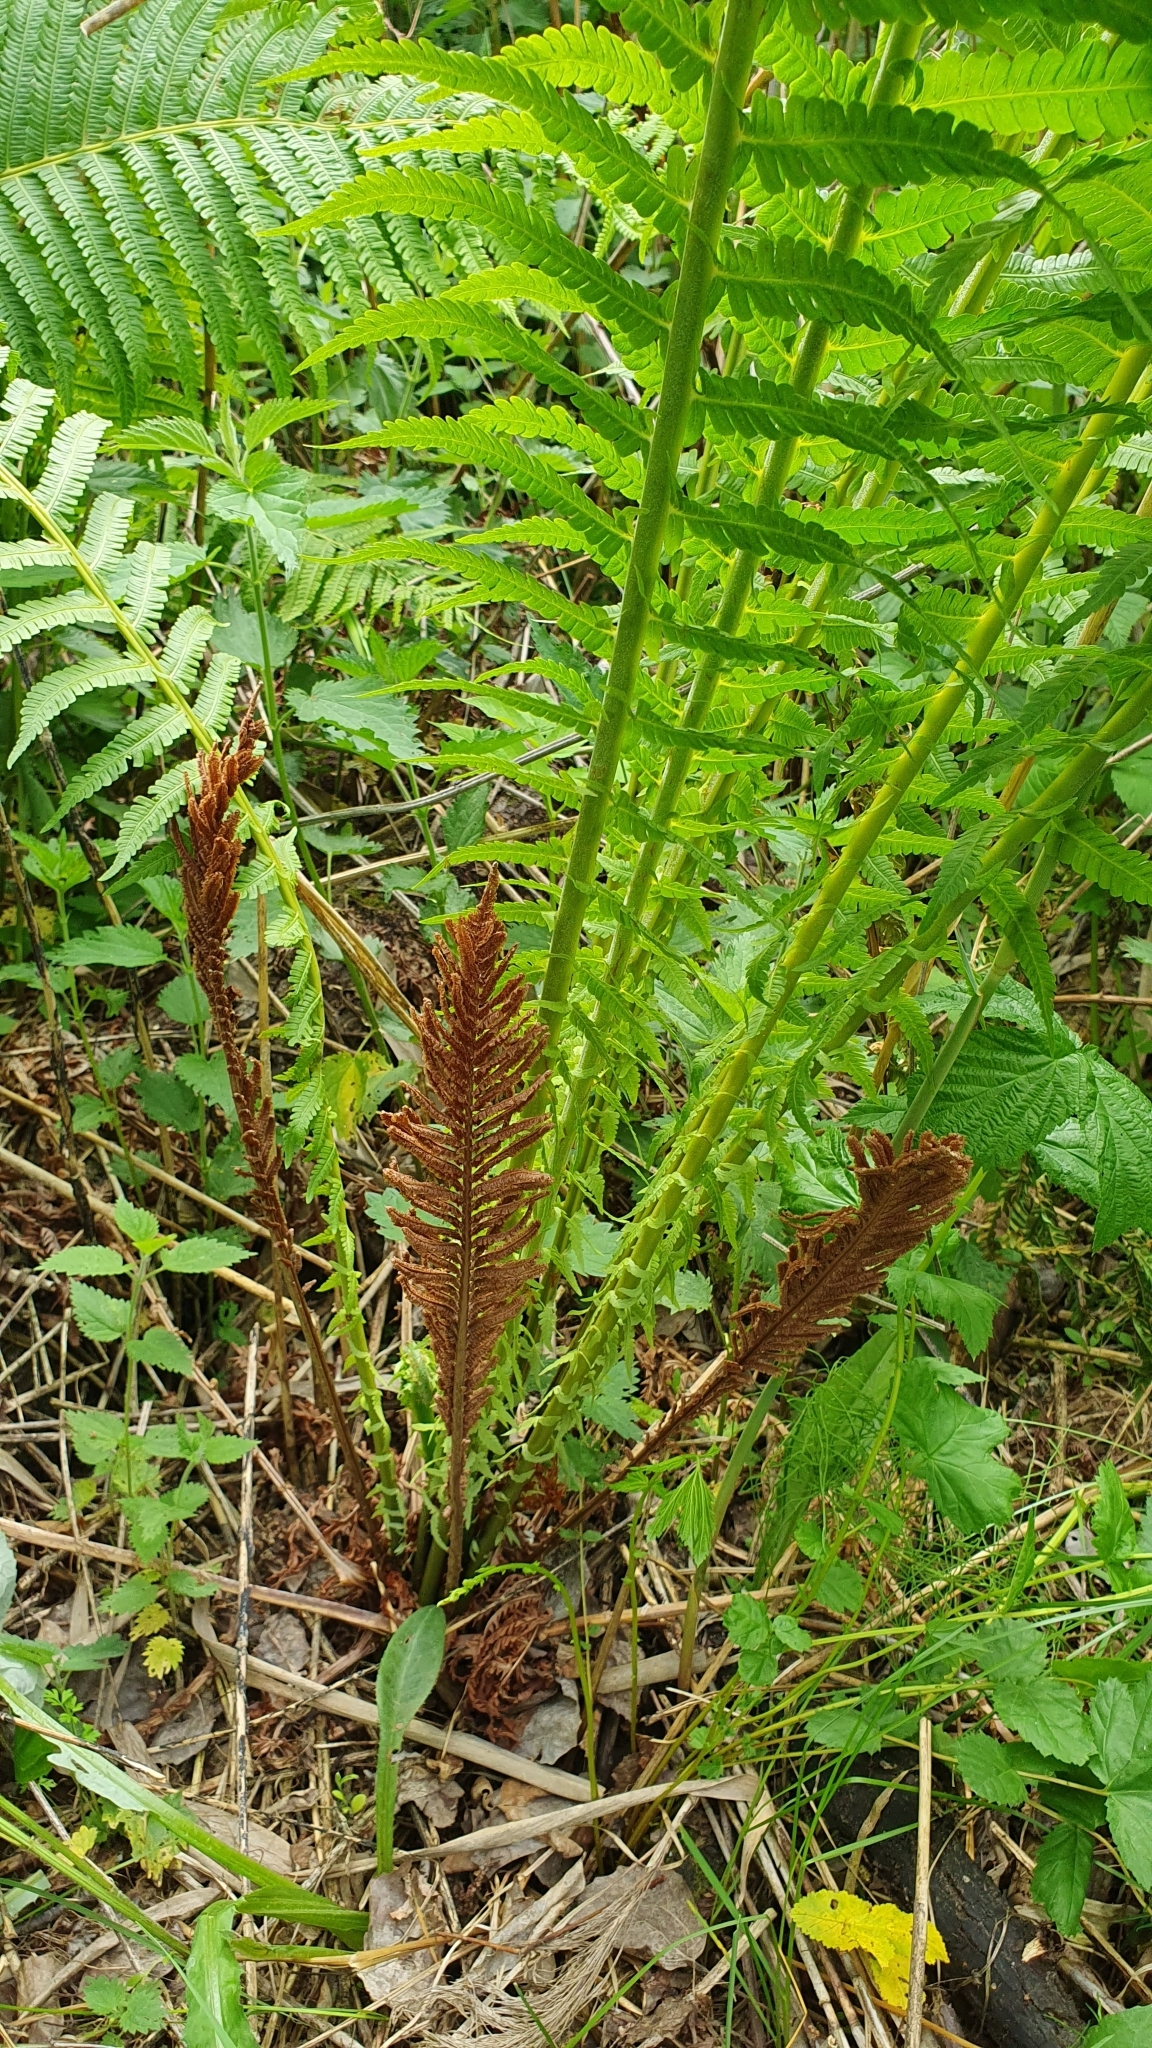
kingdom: Plantae
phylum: Tracheophyta
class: Polypodiopsida
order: Polypodiales
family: Onocleaceae
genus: Matteuccia
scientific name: Matteuccia struthiopteris
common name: Ostrich fern
